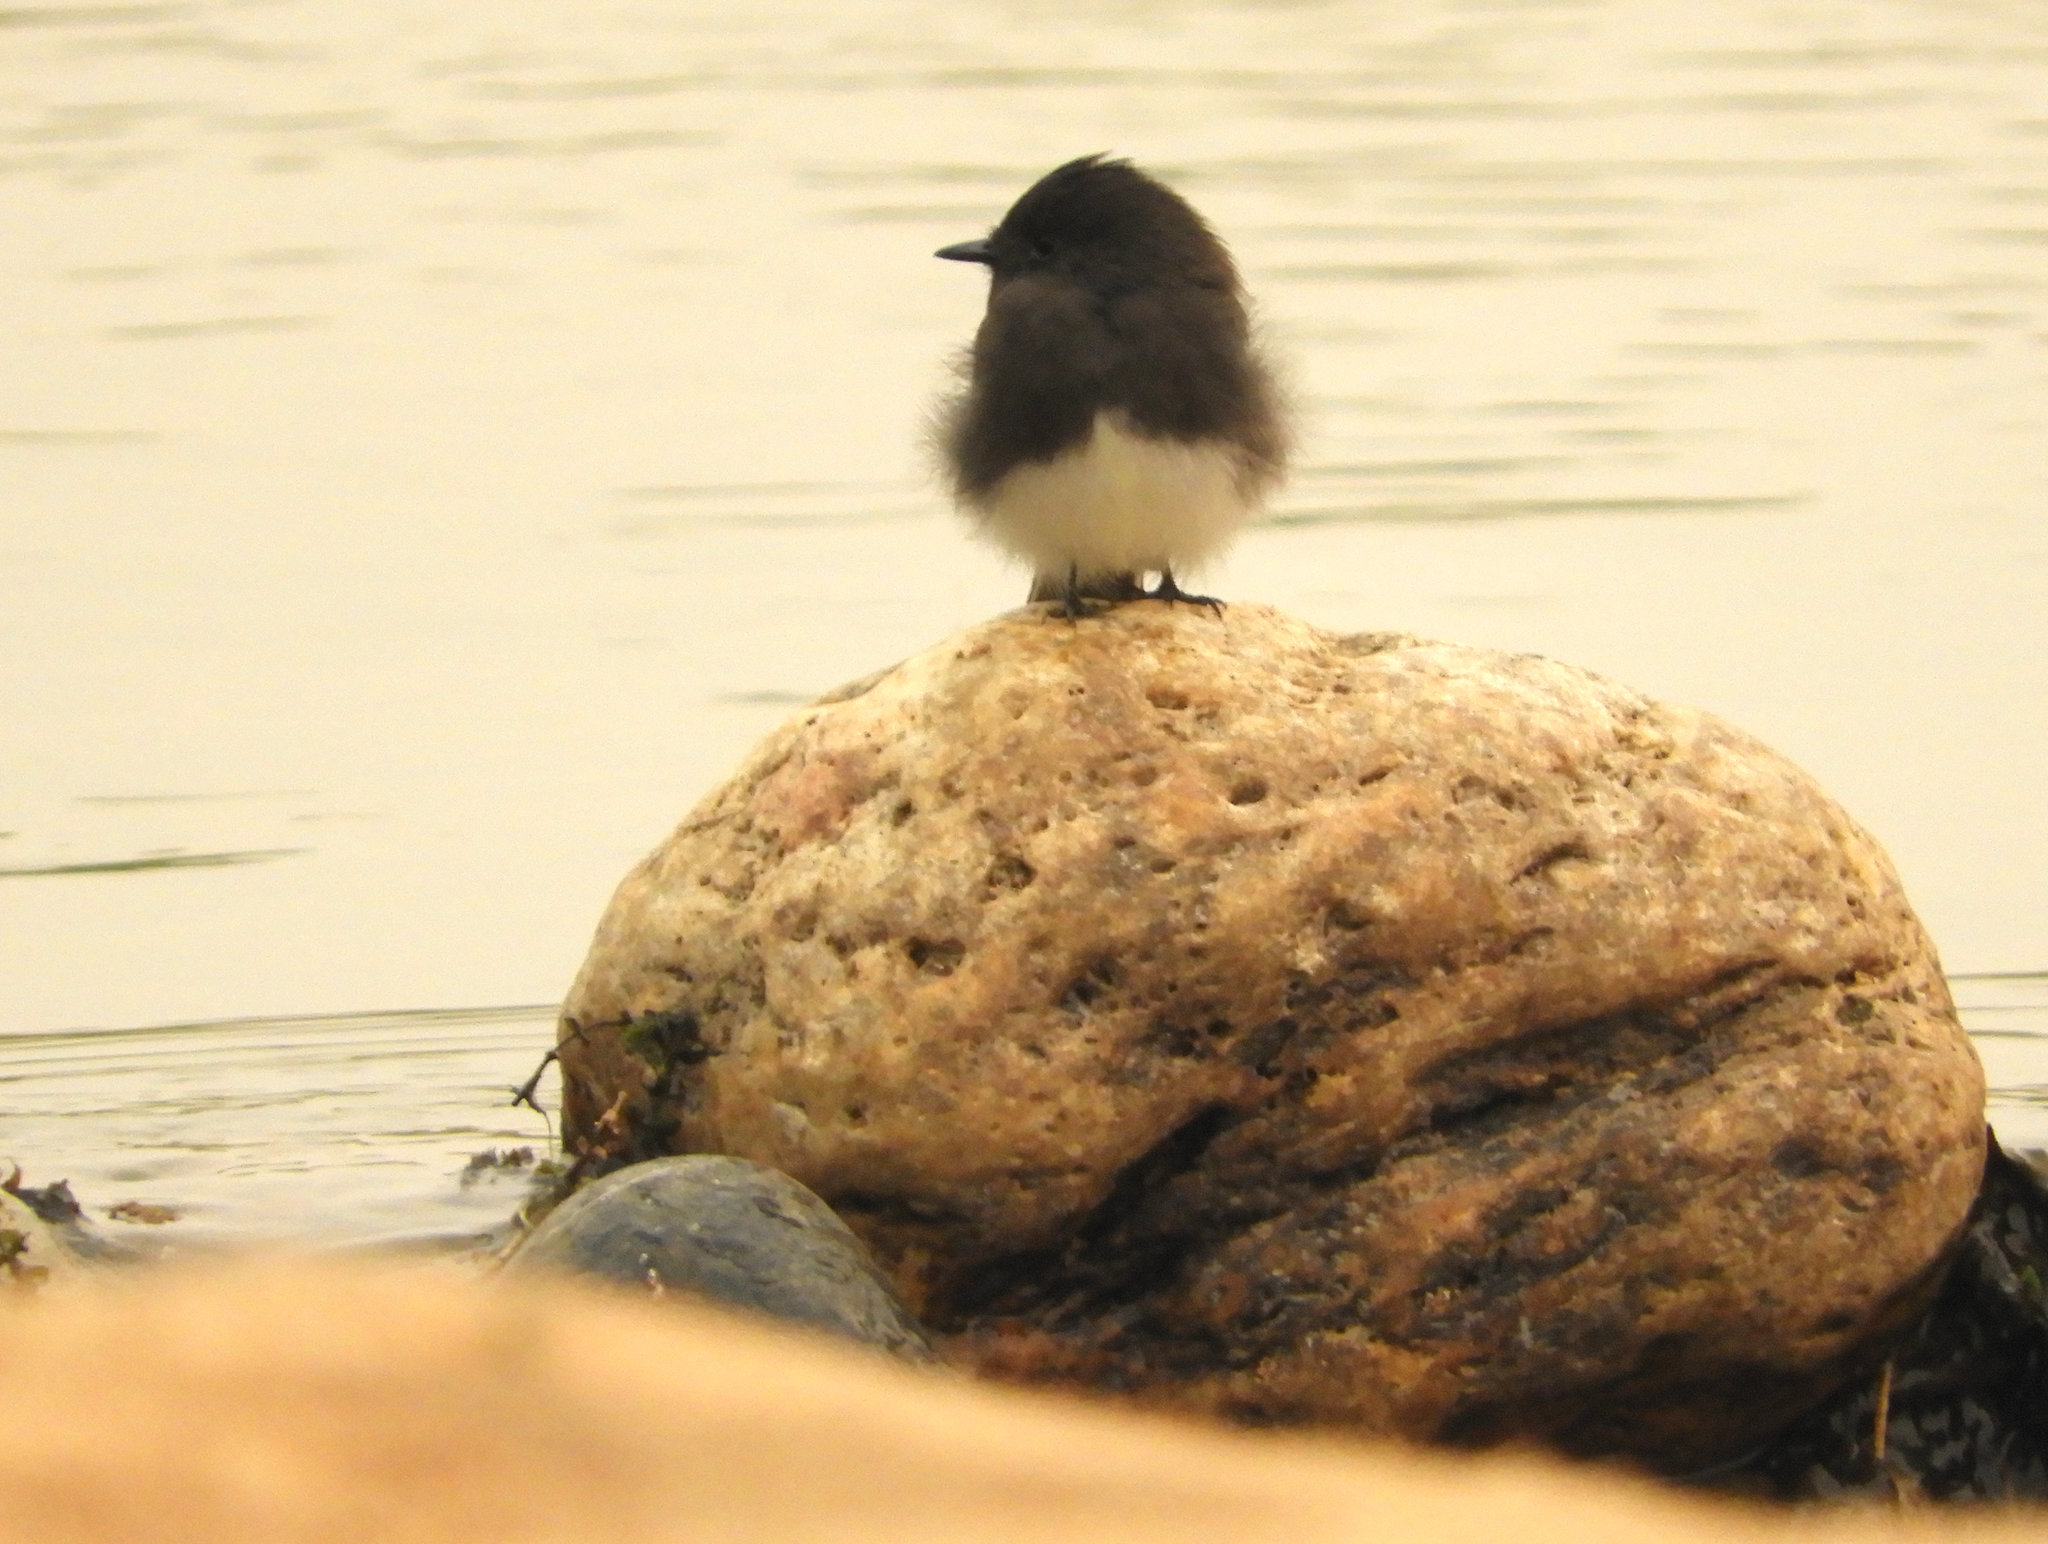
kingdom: Animalia
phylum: Chordata
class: Aves
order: Passeriformes
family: Tyrannidae
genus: Sayornis
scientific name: Sayornis nigricans
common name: Black phoebe
